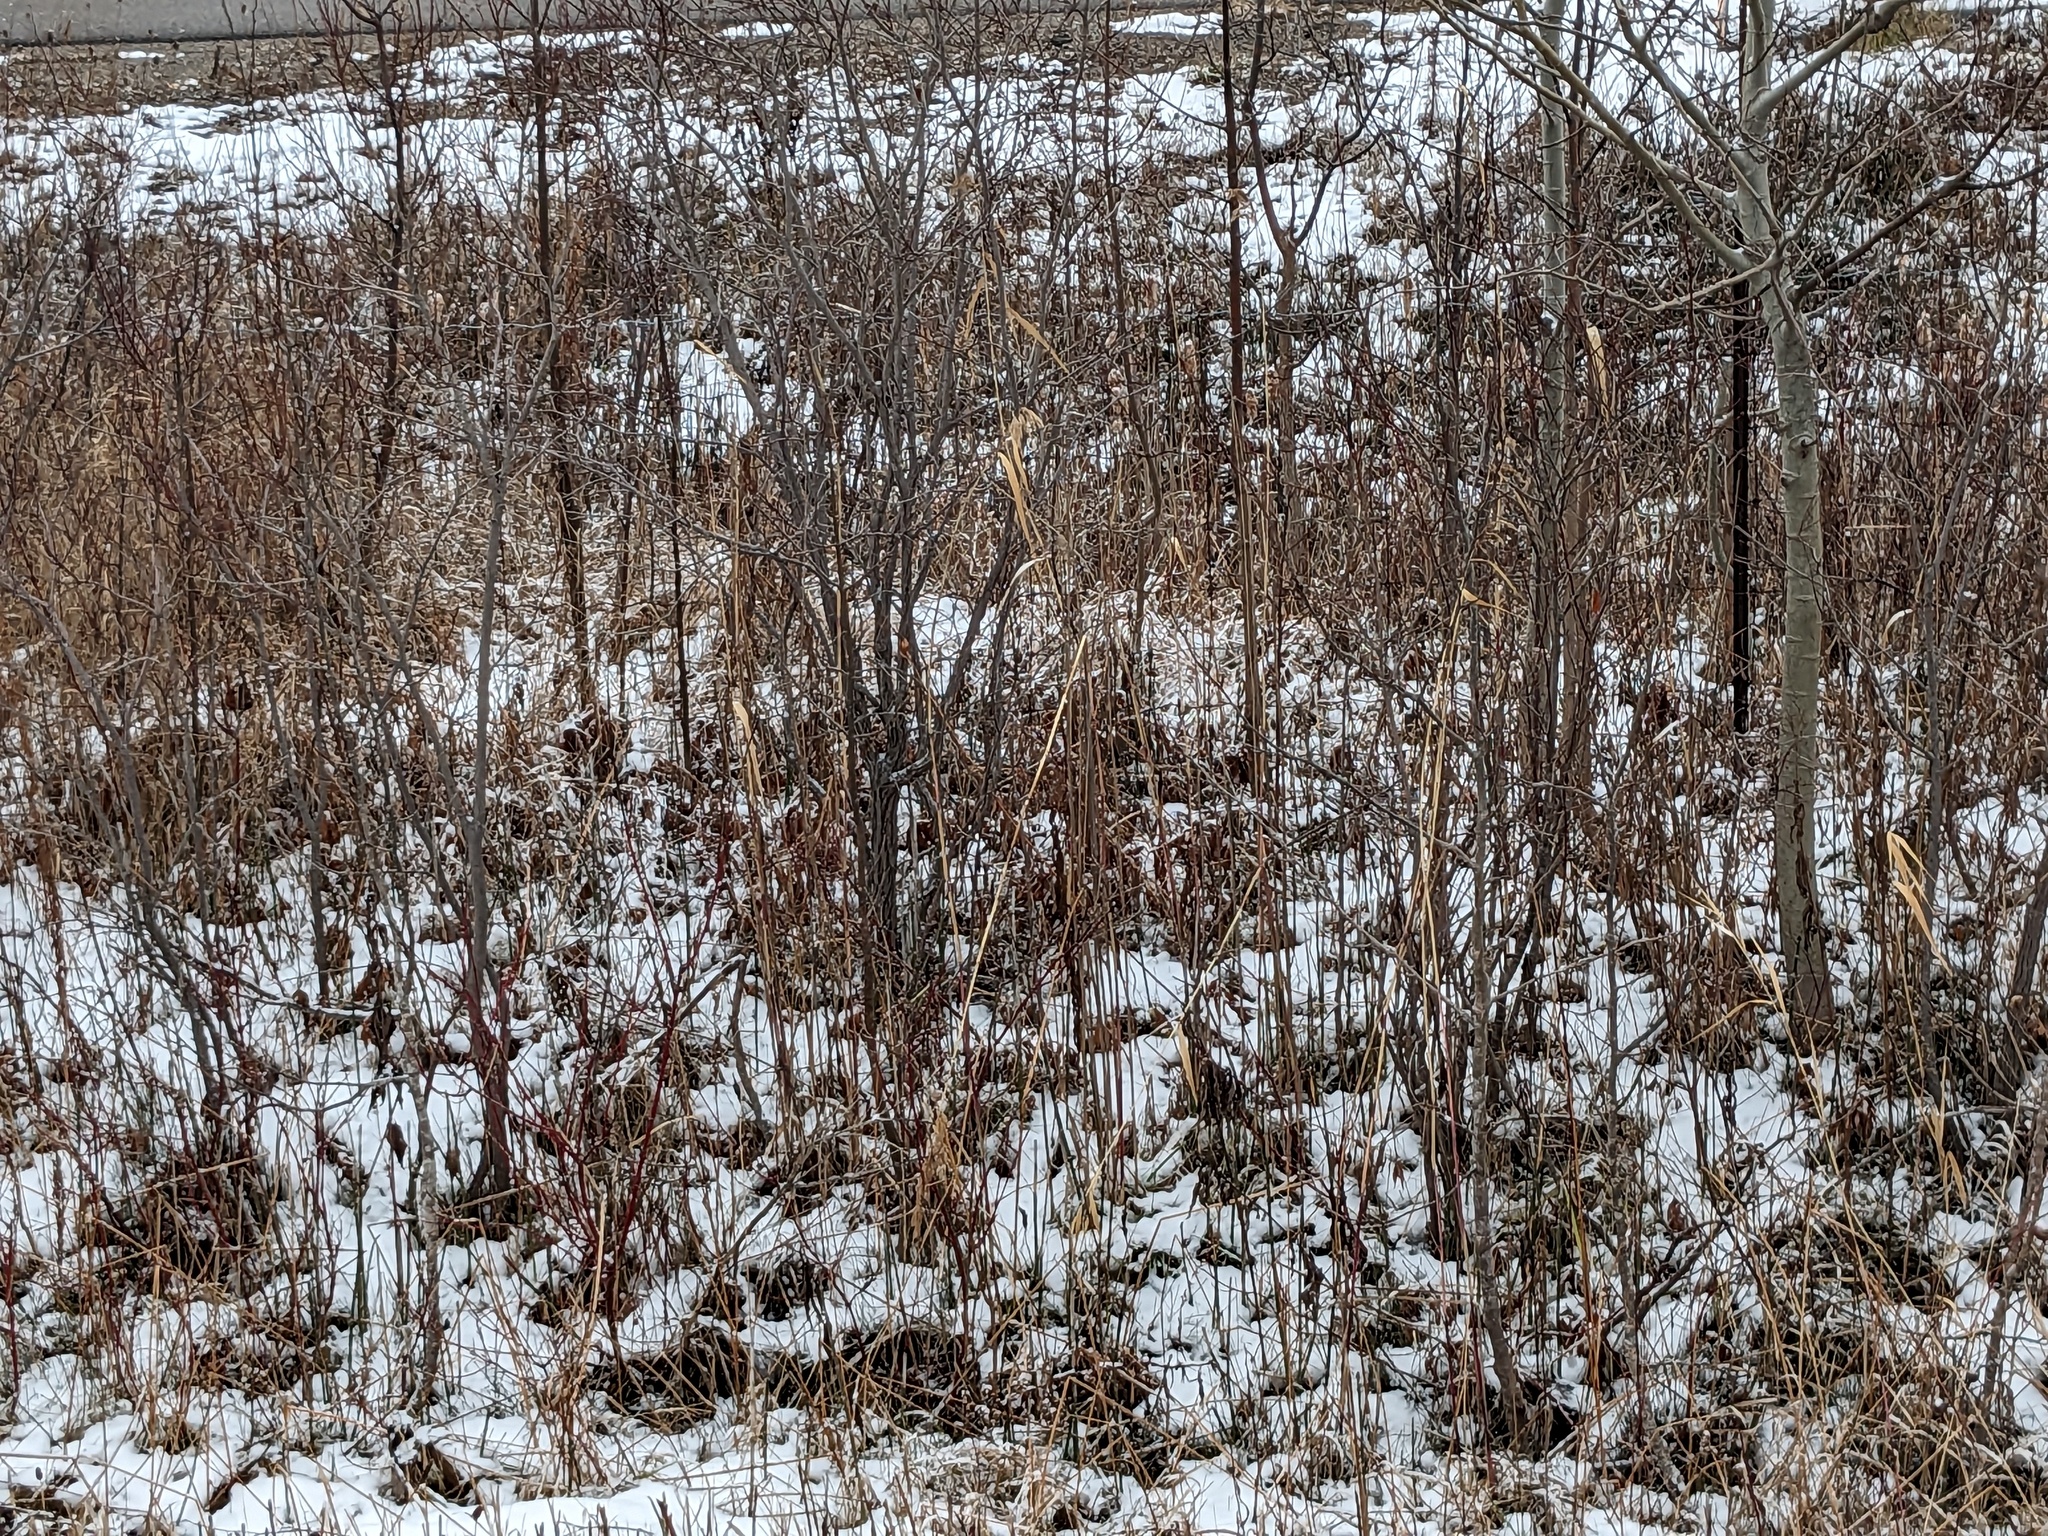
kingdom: Plantae
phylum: Tracheophyta
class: Liliopsida
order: Poales
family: Poaceae
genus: Phragmites
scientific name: Phragmites australis
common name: Common reed
